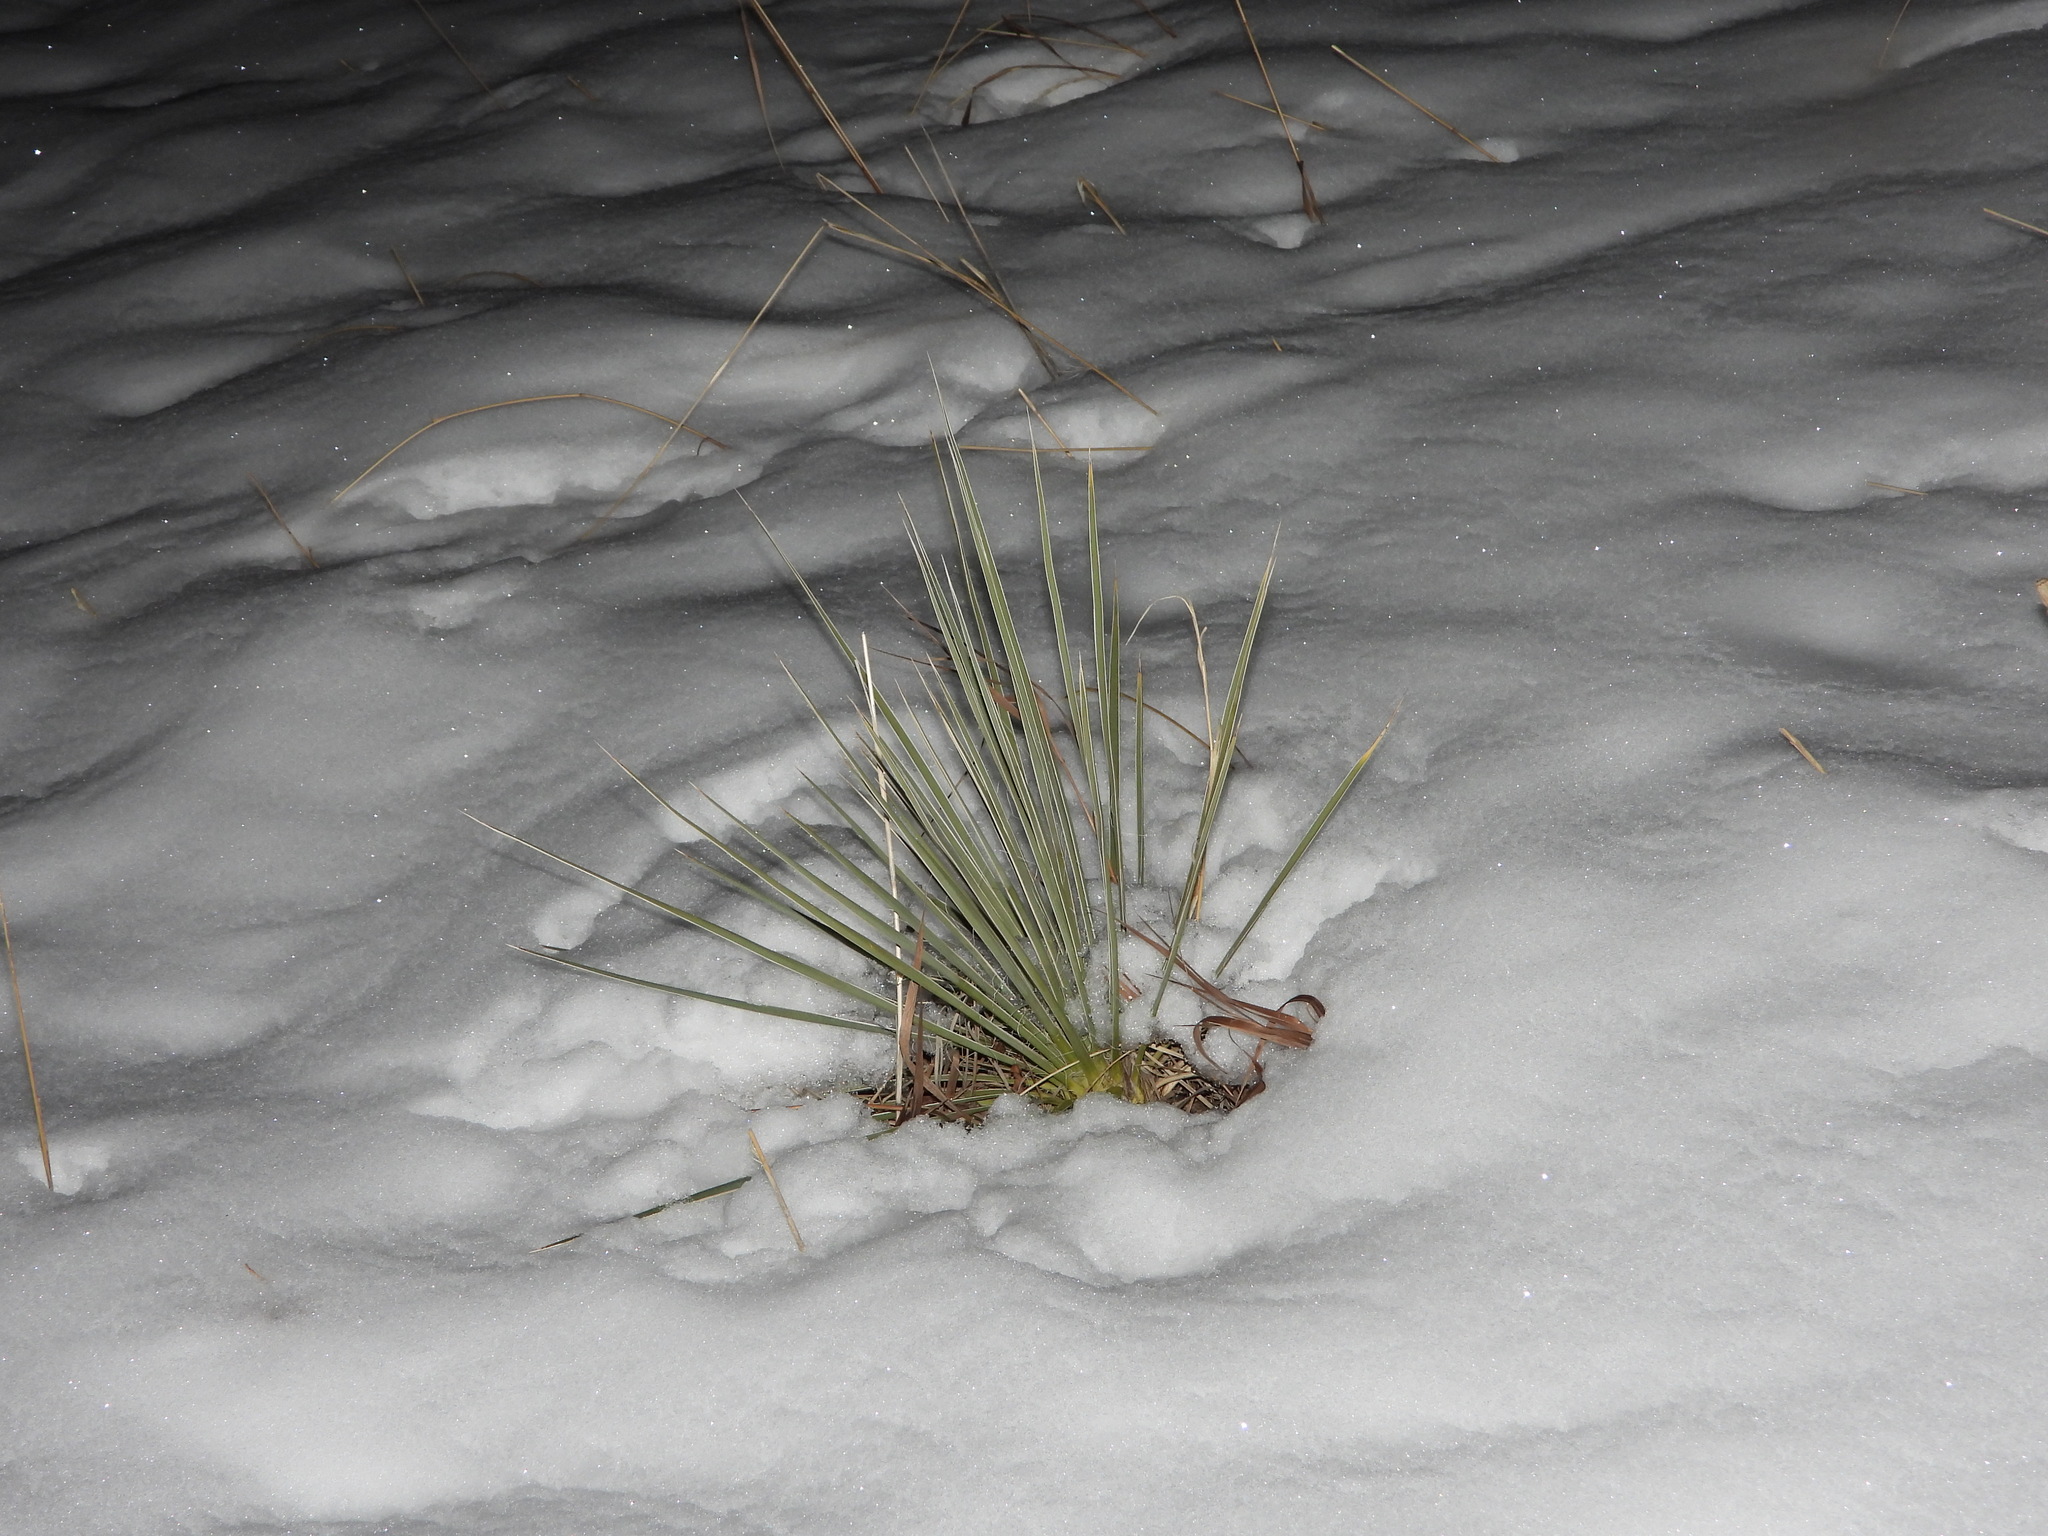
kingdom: Plantae
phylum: Tracheophyta
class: Liliopsida
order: Asparagales
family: Asparagaceae
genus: Yucca
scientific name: Yucca glauca
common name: Great plains yucca
